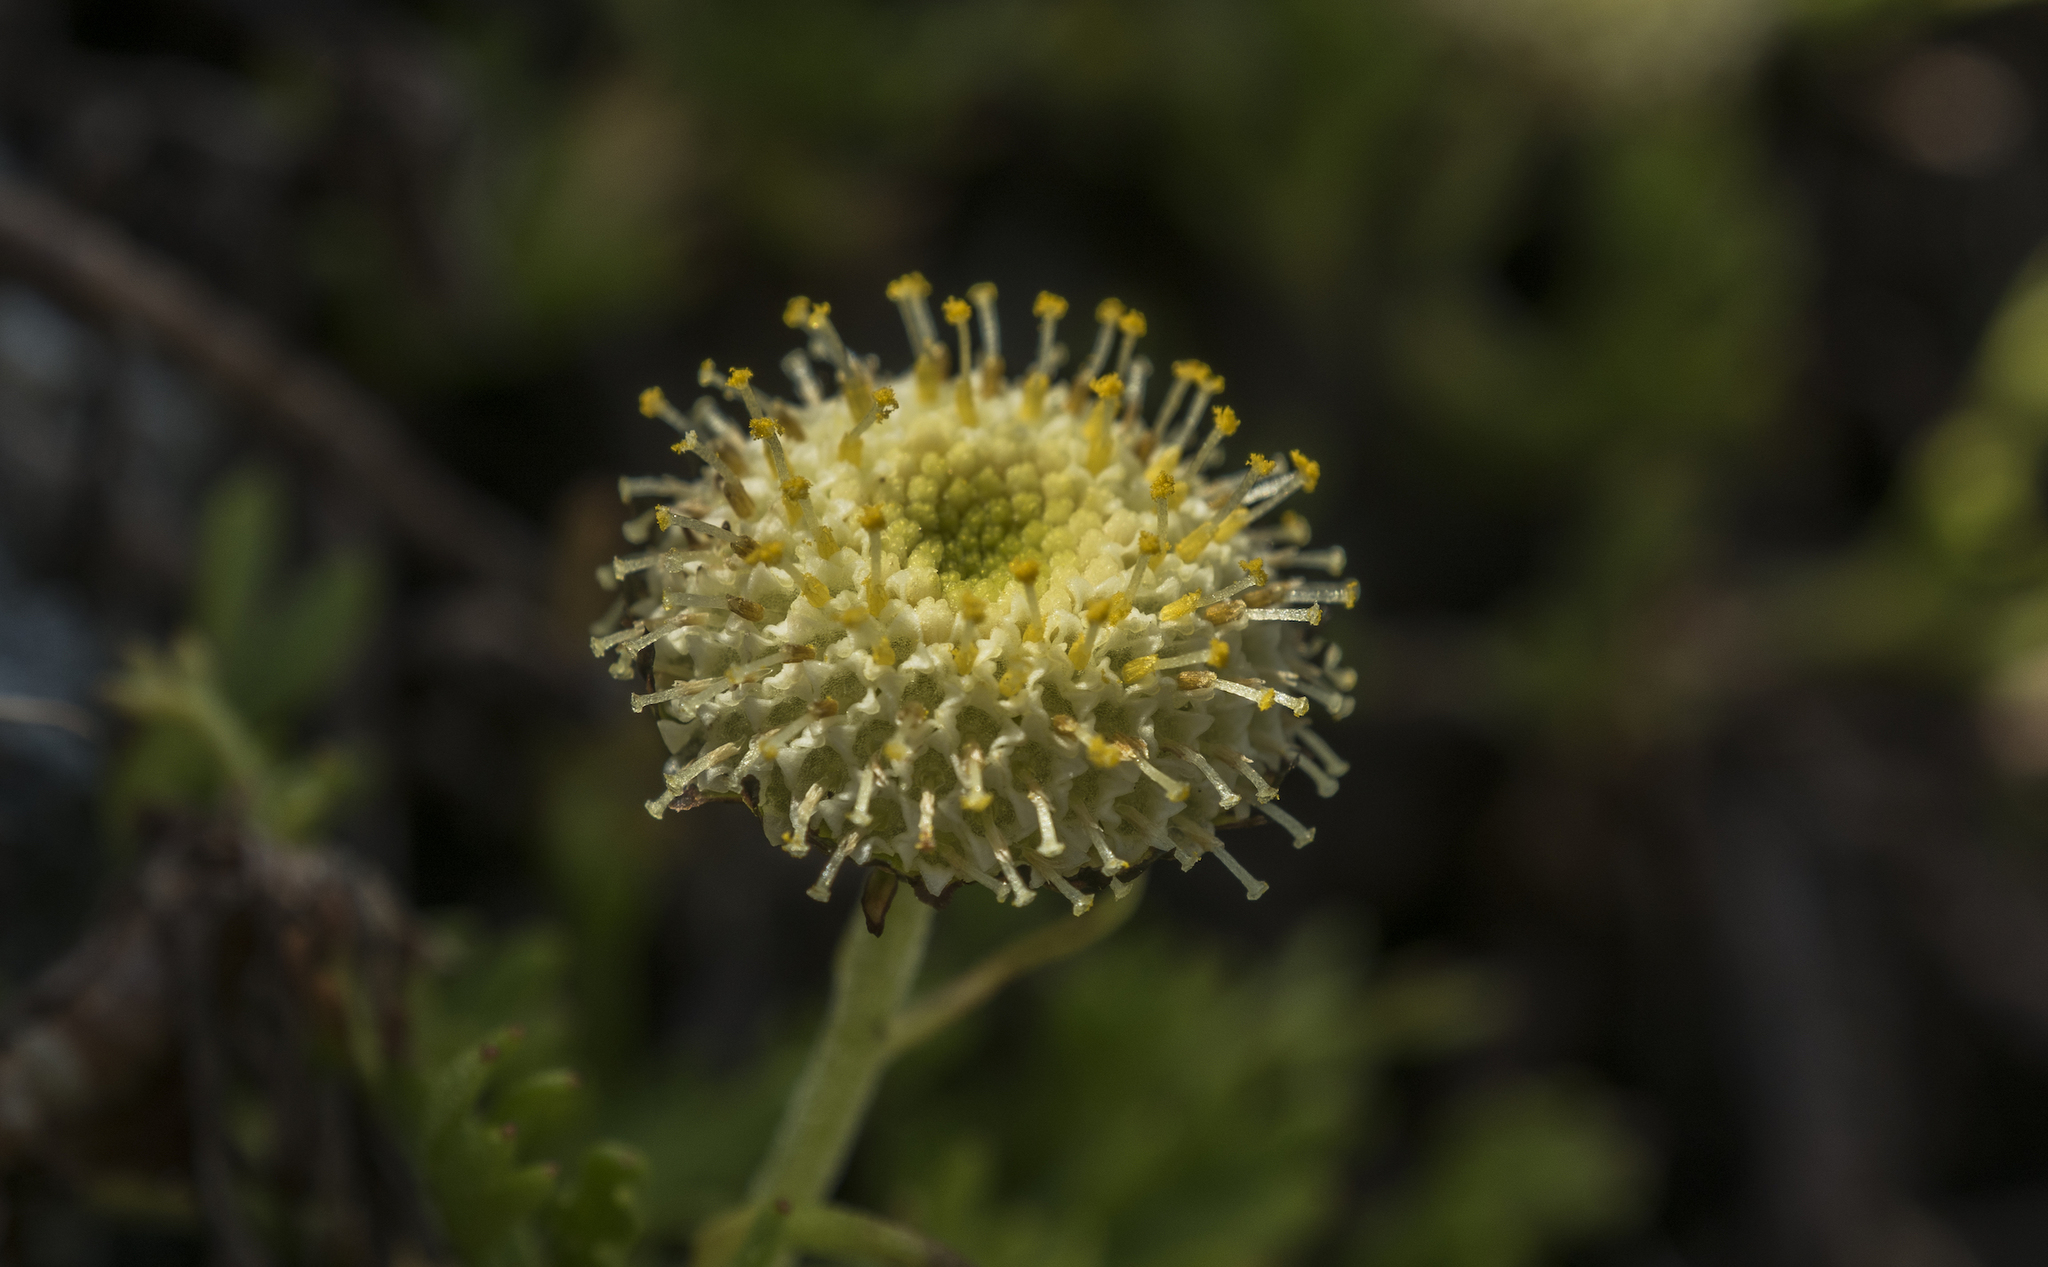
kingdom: Plantae
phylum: Tracheophyta
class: Magnoliopsida
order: Asterales
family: Asteraceae
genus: Leptinella
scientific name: Leptinella pyrethrifolia
